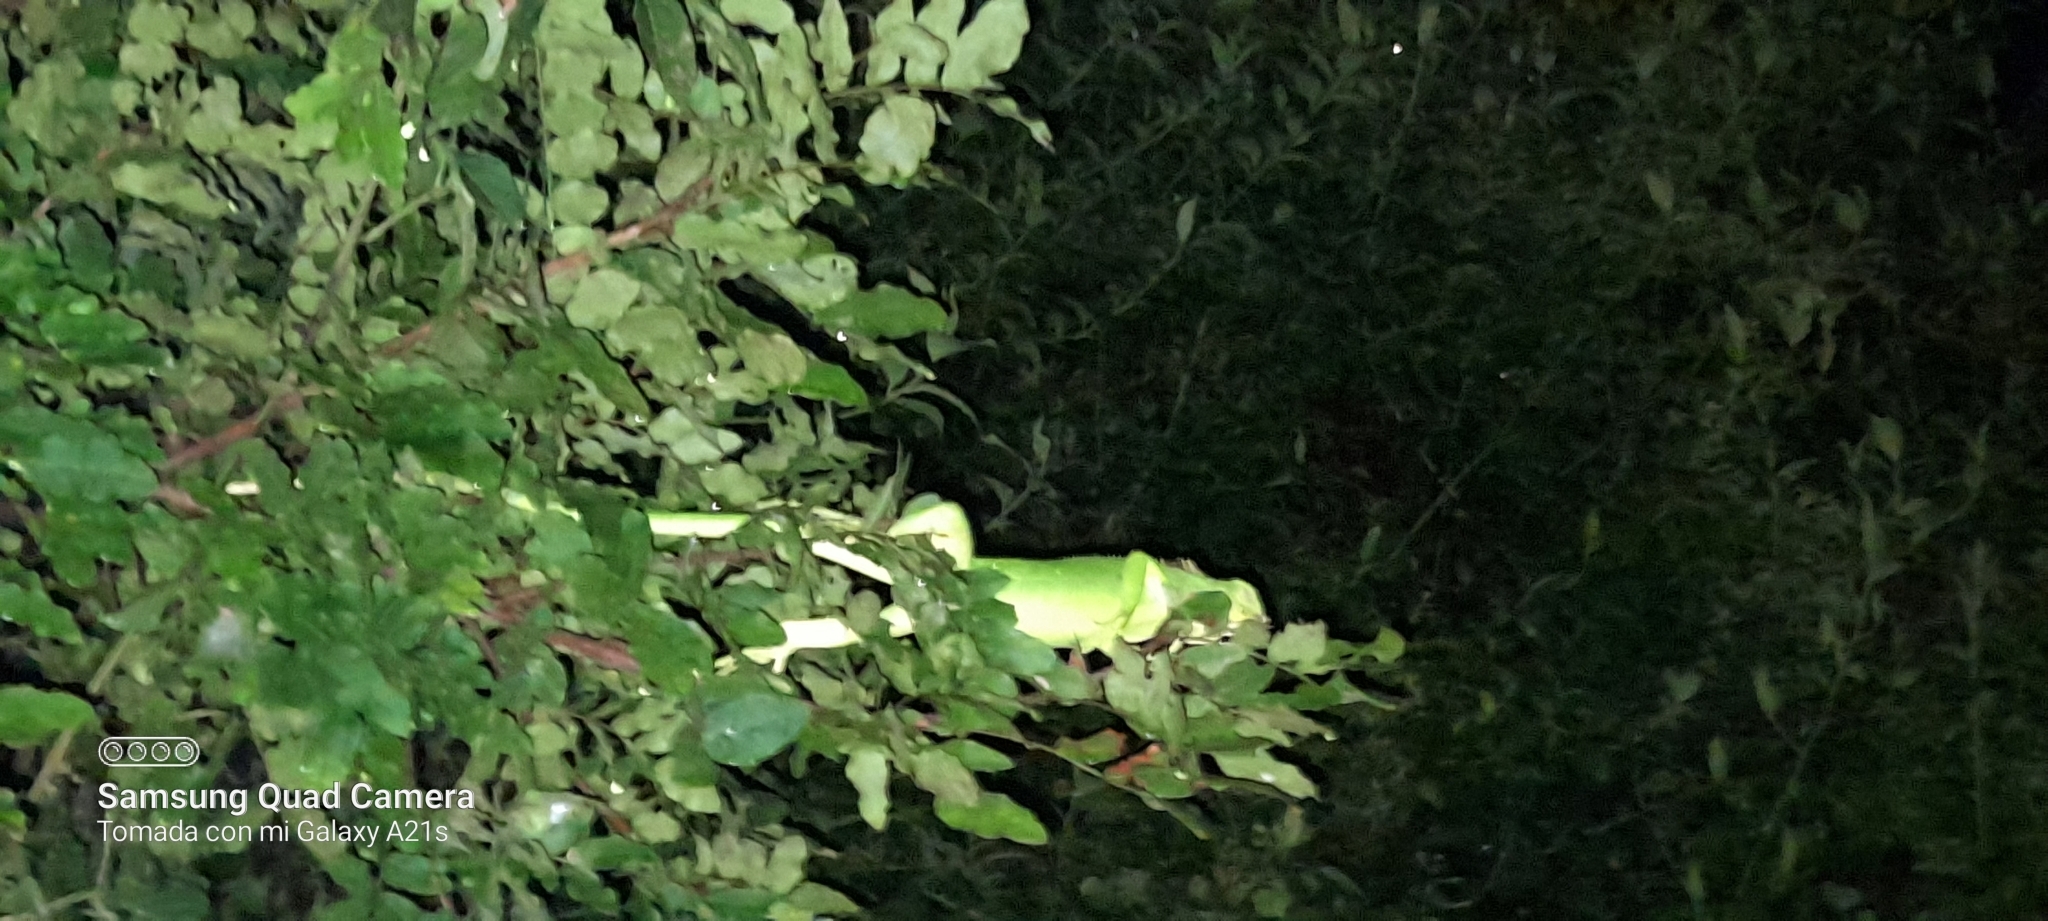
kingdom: Animalia
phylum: Chordata
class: Squamata
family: Iguanidae
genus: Iguana
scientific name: Iguana iguana
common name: Green iguana
